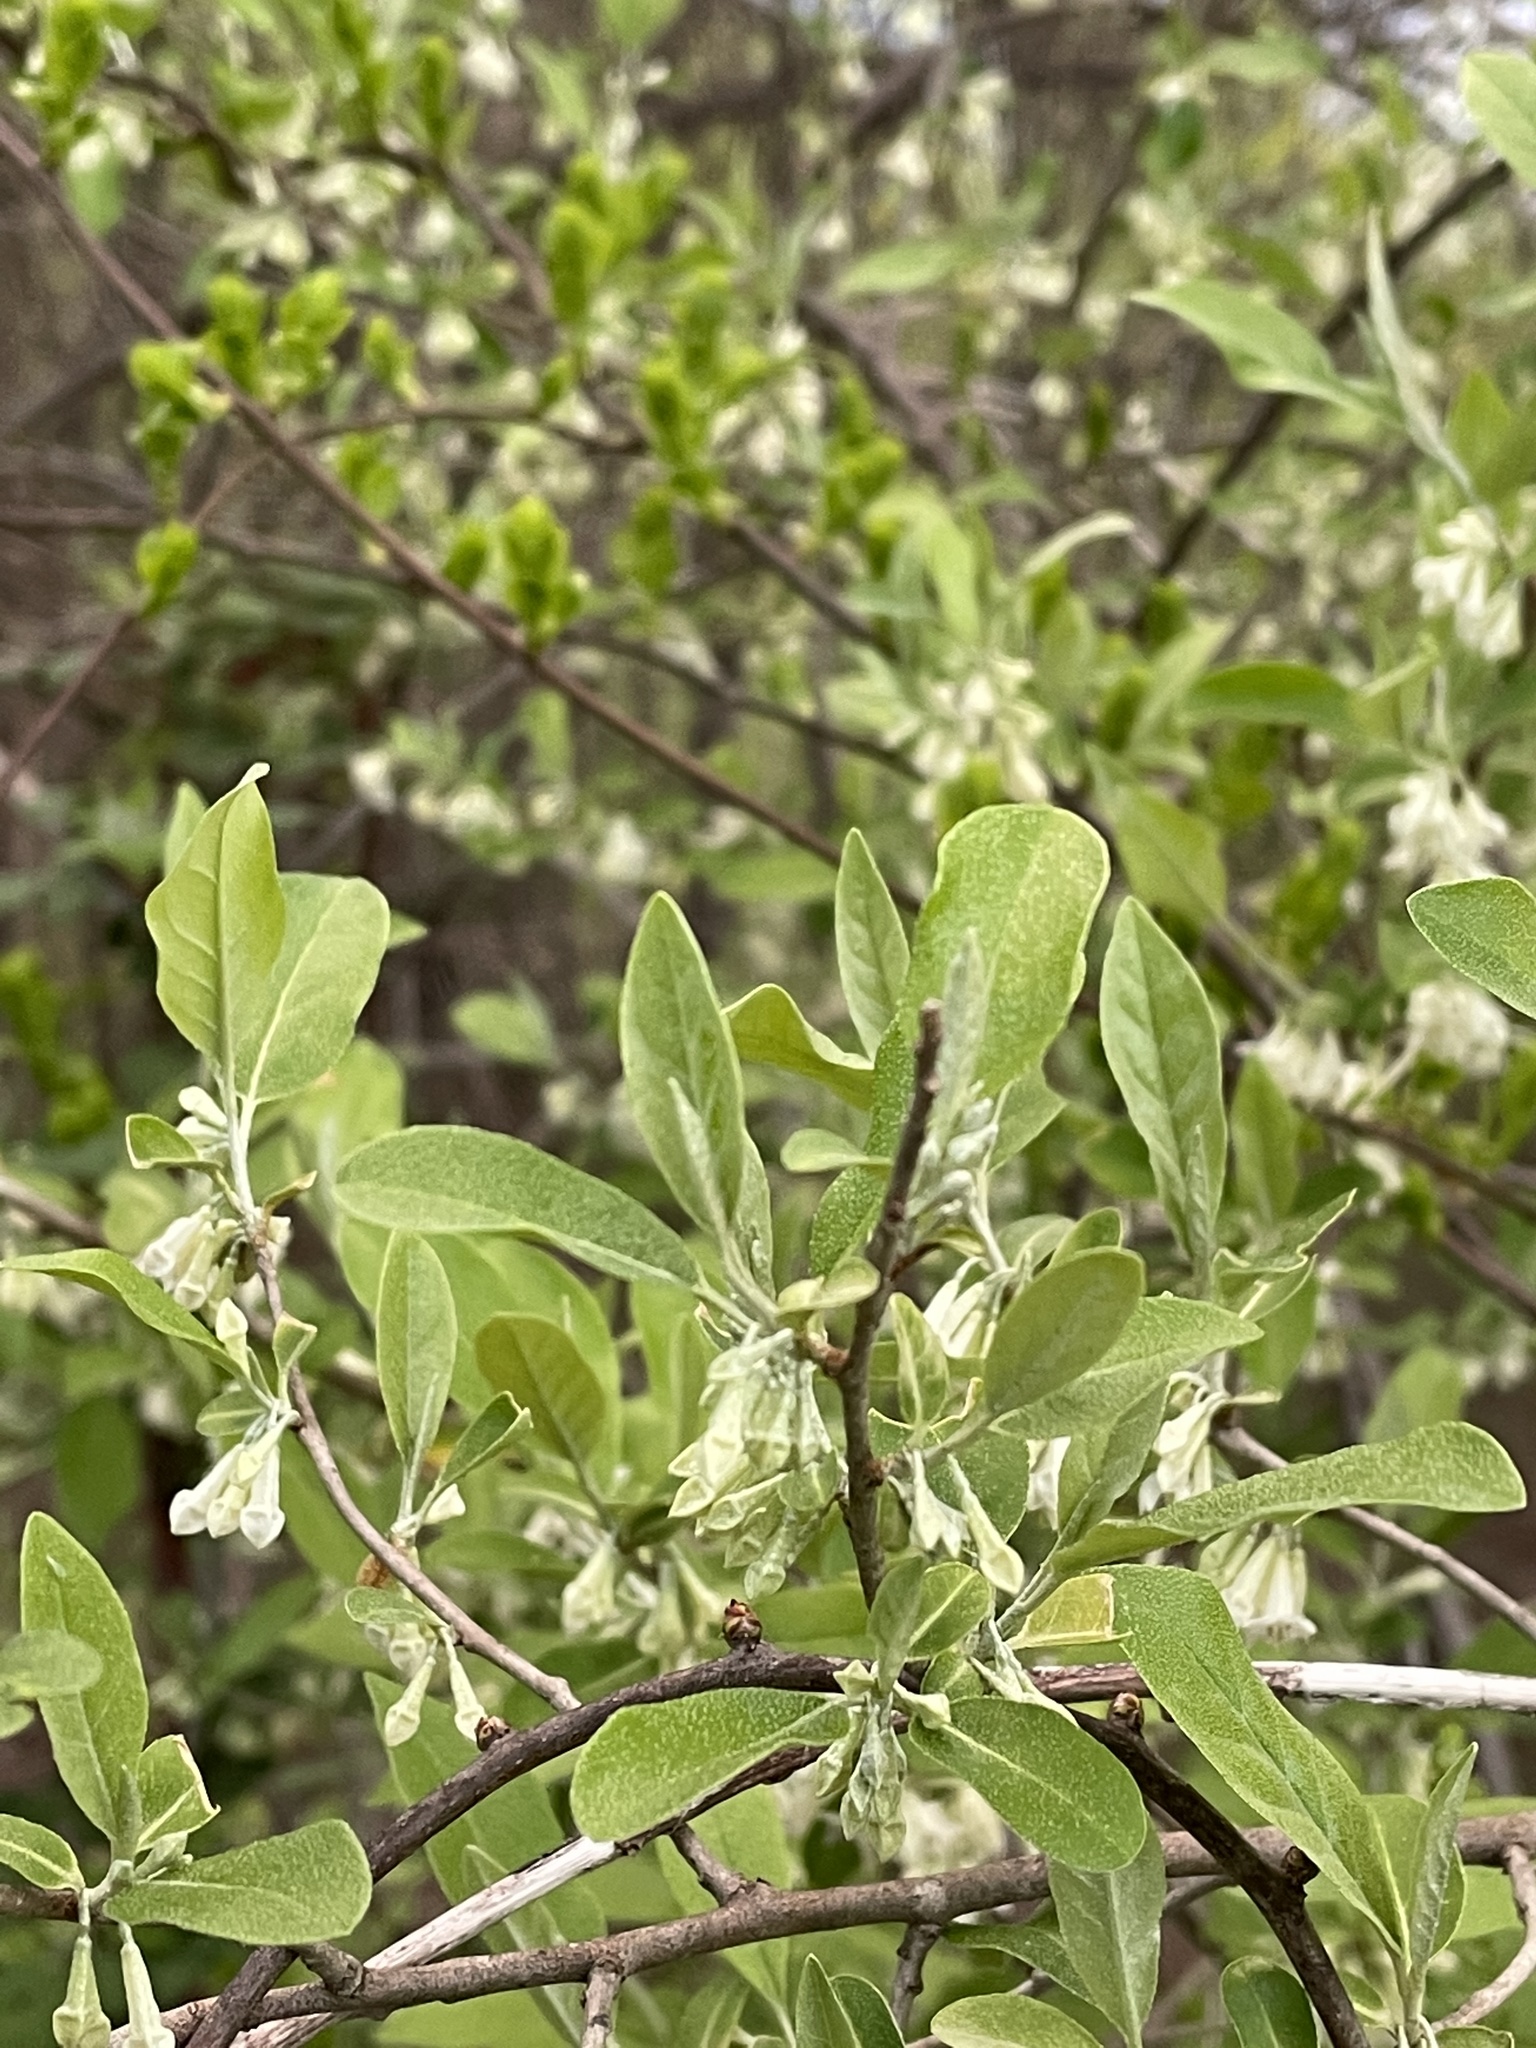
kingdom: Plantae
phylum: Tracheophyta
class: Magnoliopsida
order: Rosales
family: Elaeagnaceae
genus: Elaeagnus
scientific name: Elaeagnus umbellata
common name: Autumn olive
